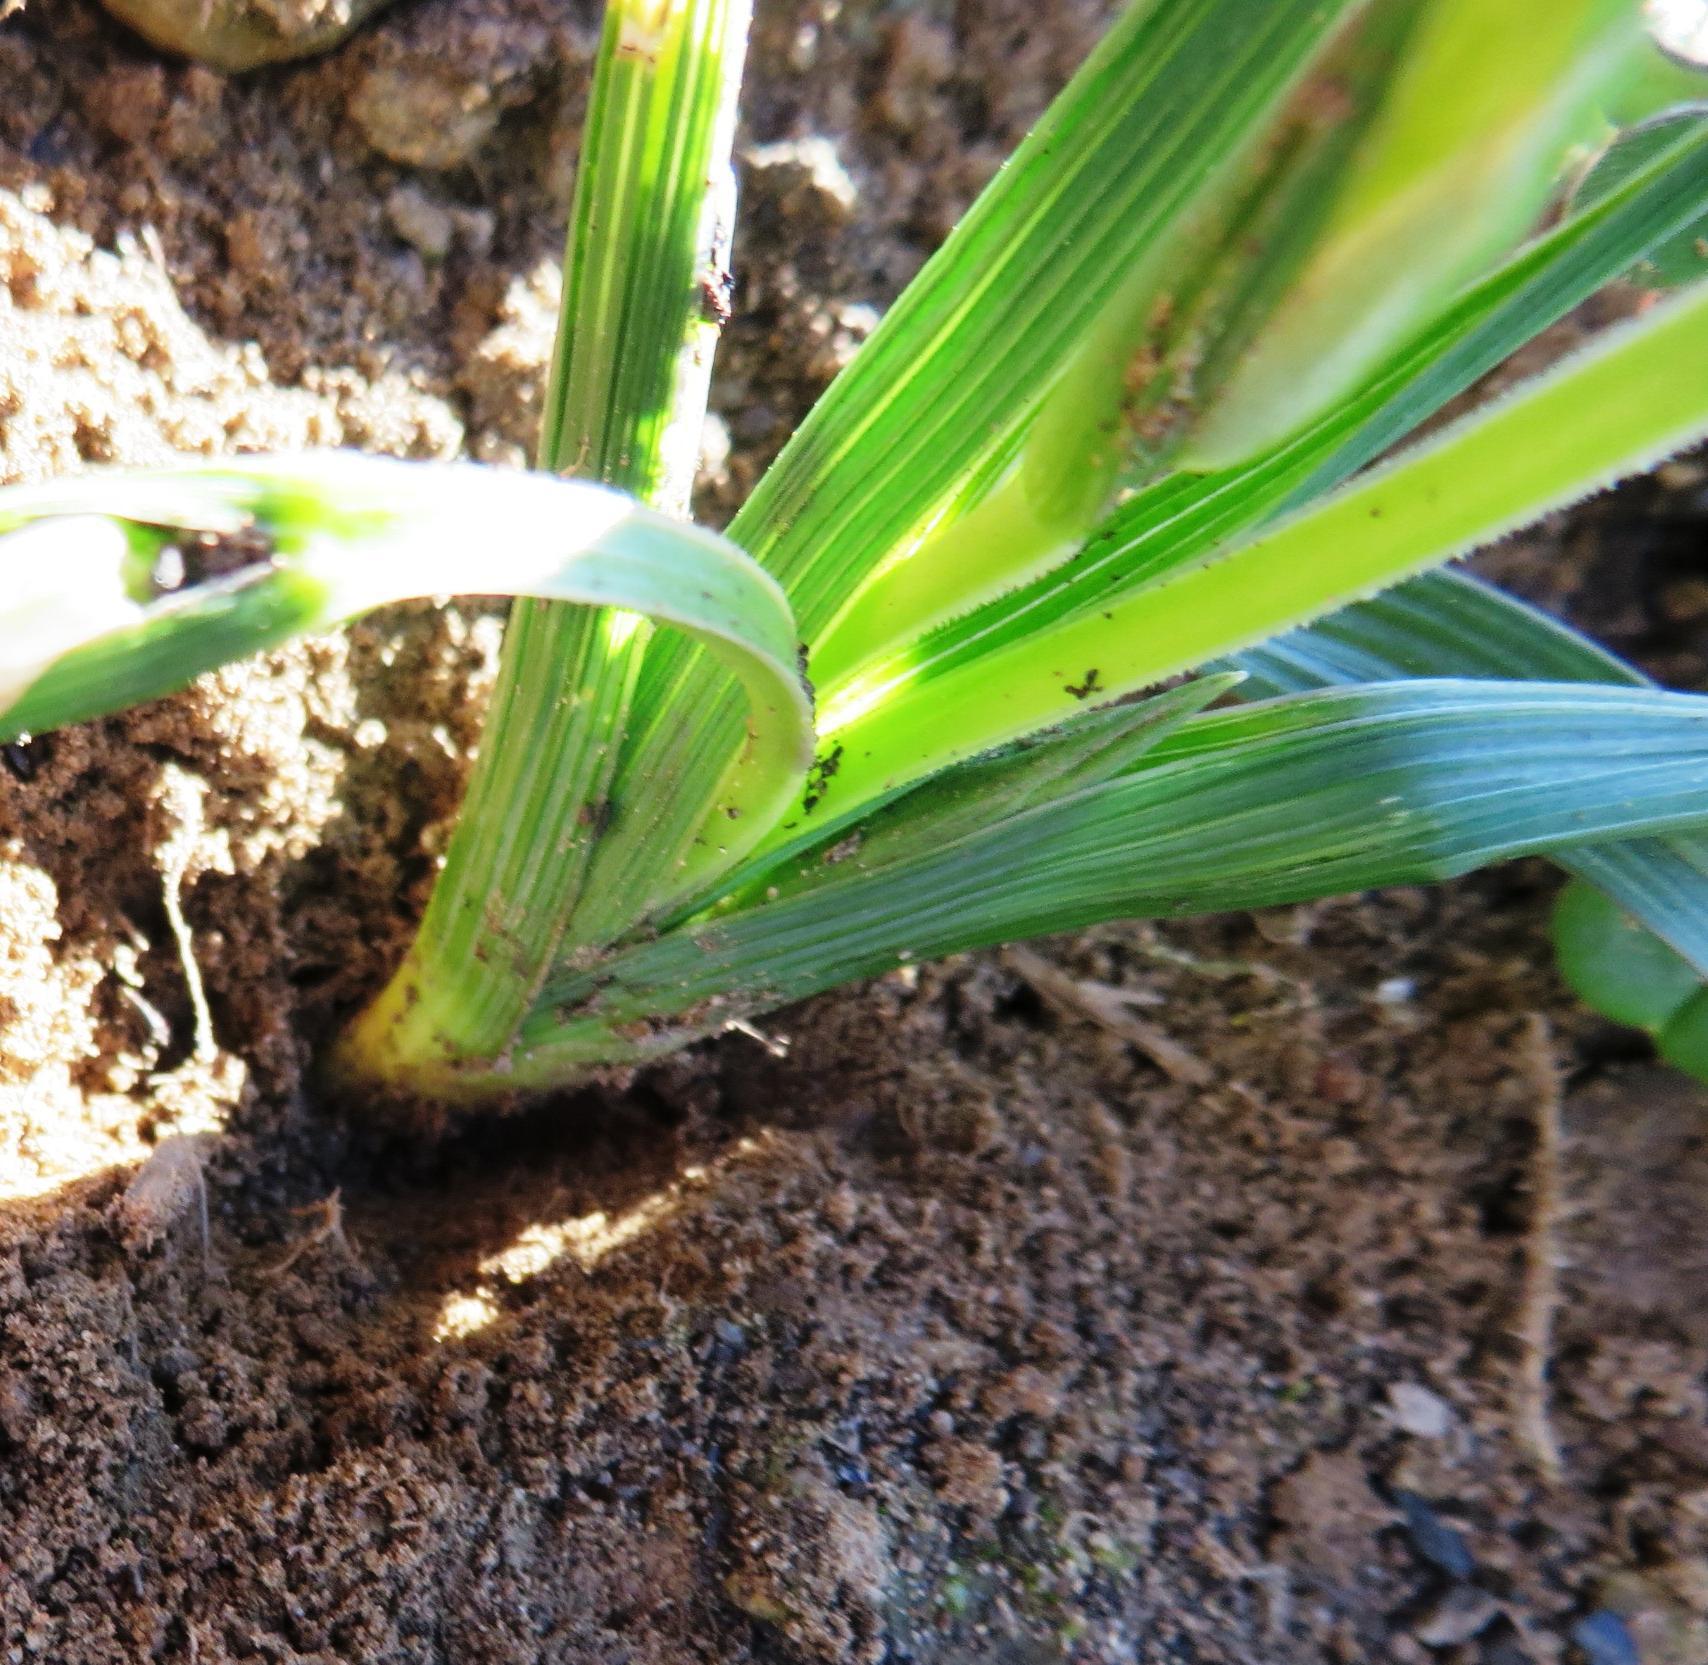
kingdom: Plantae
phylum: Tracheophyta
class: Liliopsida
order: Asparagales
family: Iridaceae
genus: Romulea
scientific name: Romulea flava
